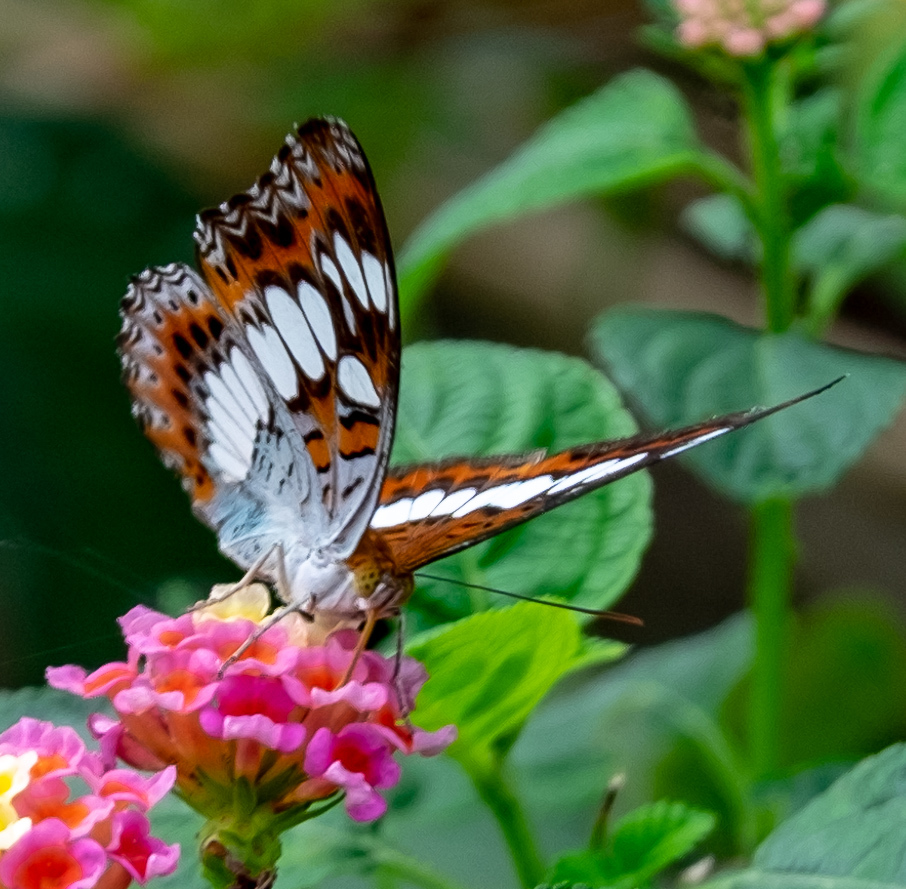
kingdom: Animalia
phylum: Arthropoda
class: Insecta
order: Lepidoptera
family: Nymphalidae
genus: Limenitis
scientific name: Limenitis Moduza procris
